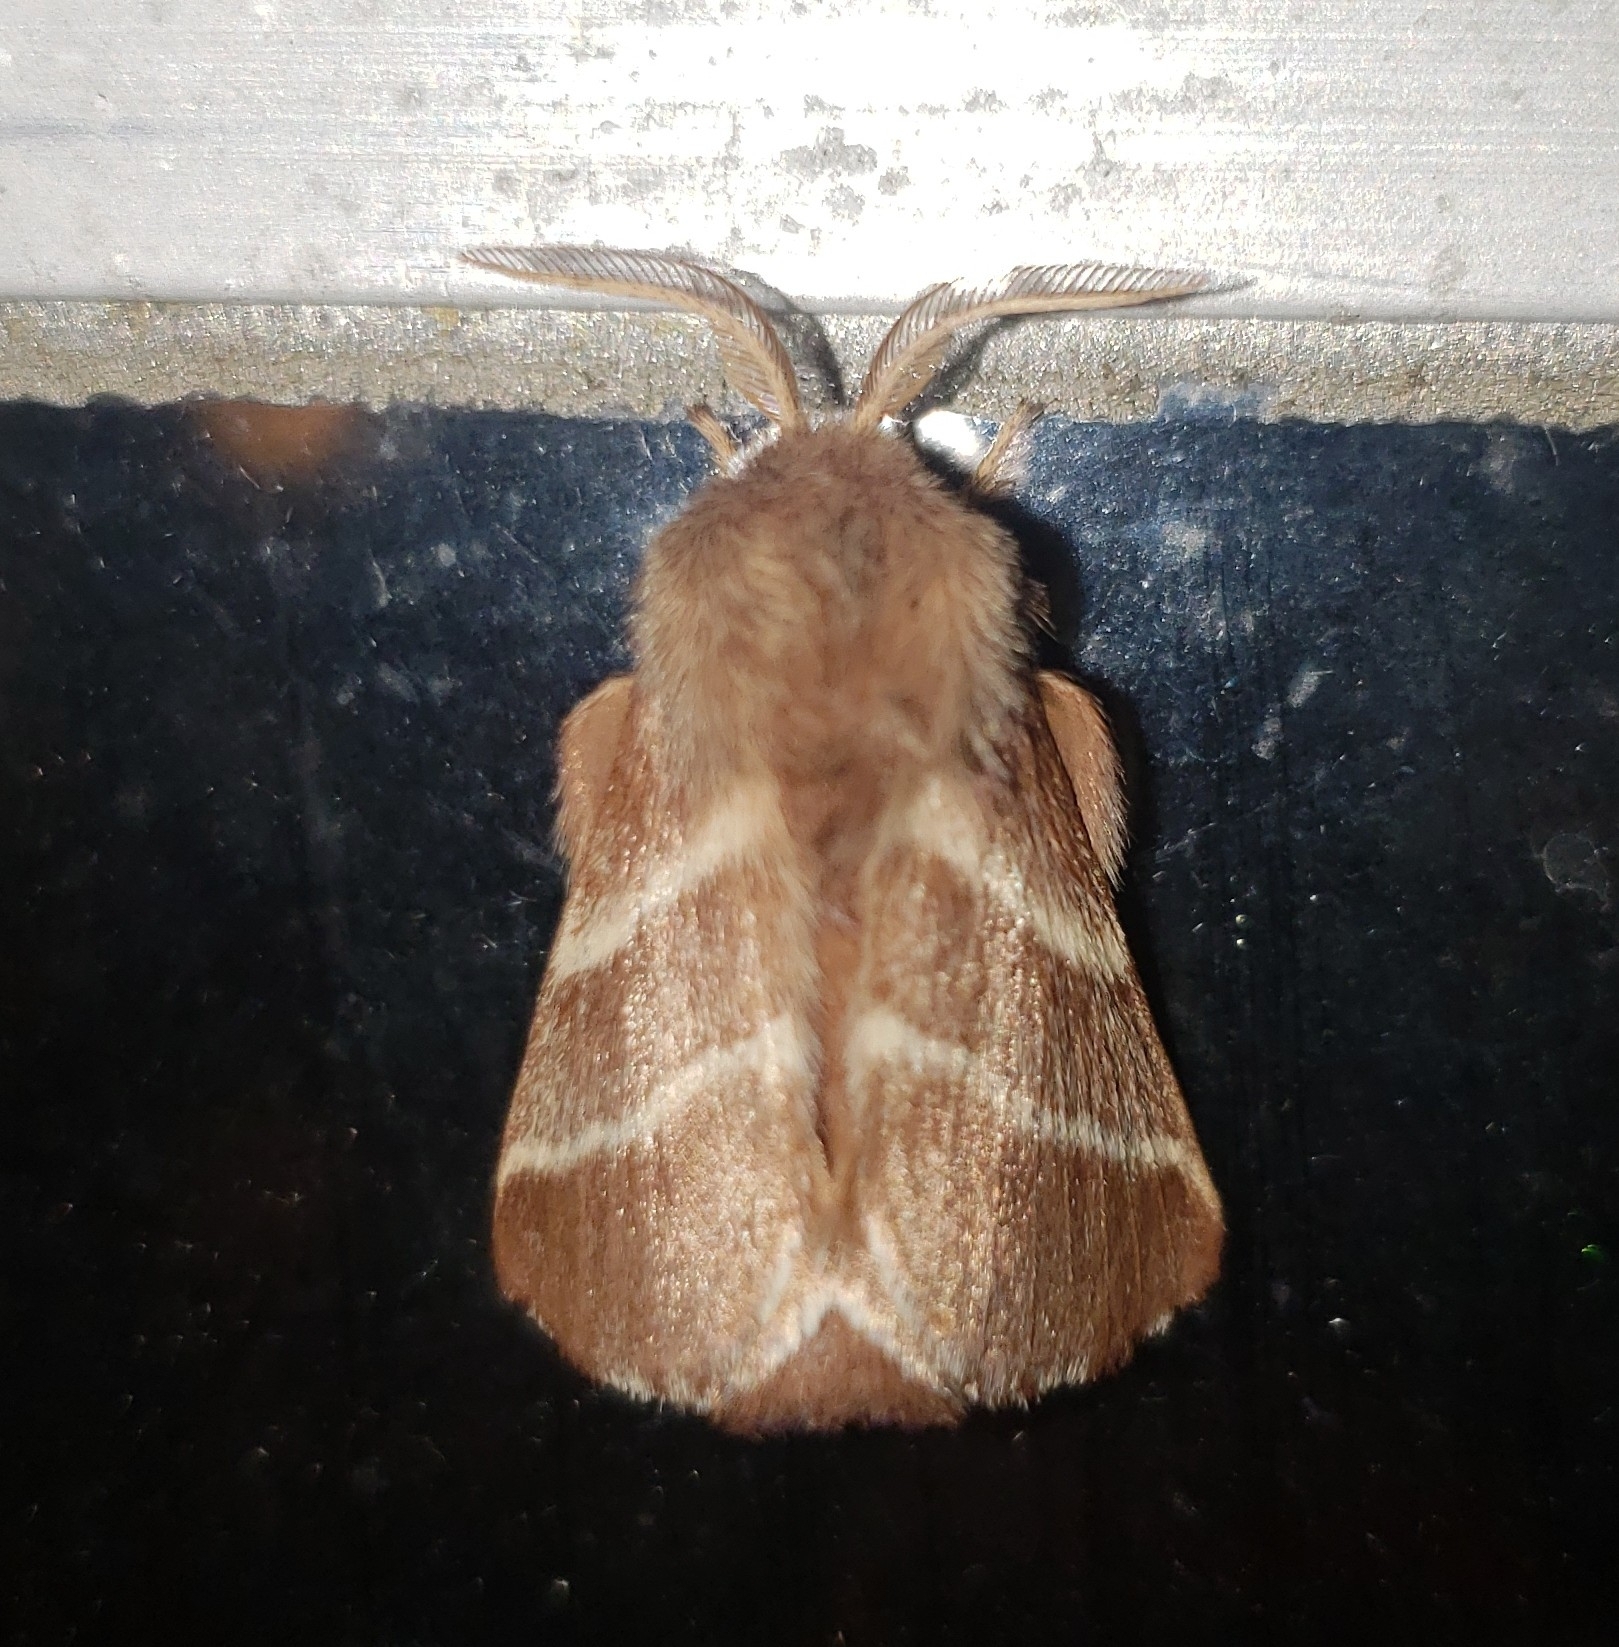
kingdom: Animalia
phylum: Arthropoda
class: Insecta
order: Lepidoptera
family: Lasiocampidae
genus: Malacosoma
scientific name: Malacosoma americana
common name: Eastern tent caterpillar moth
